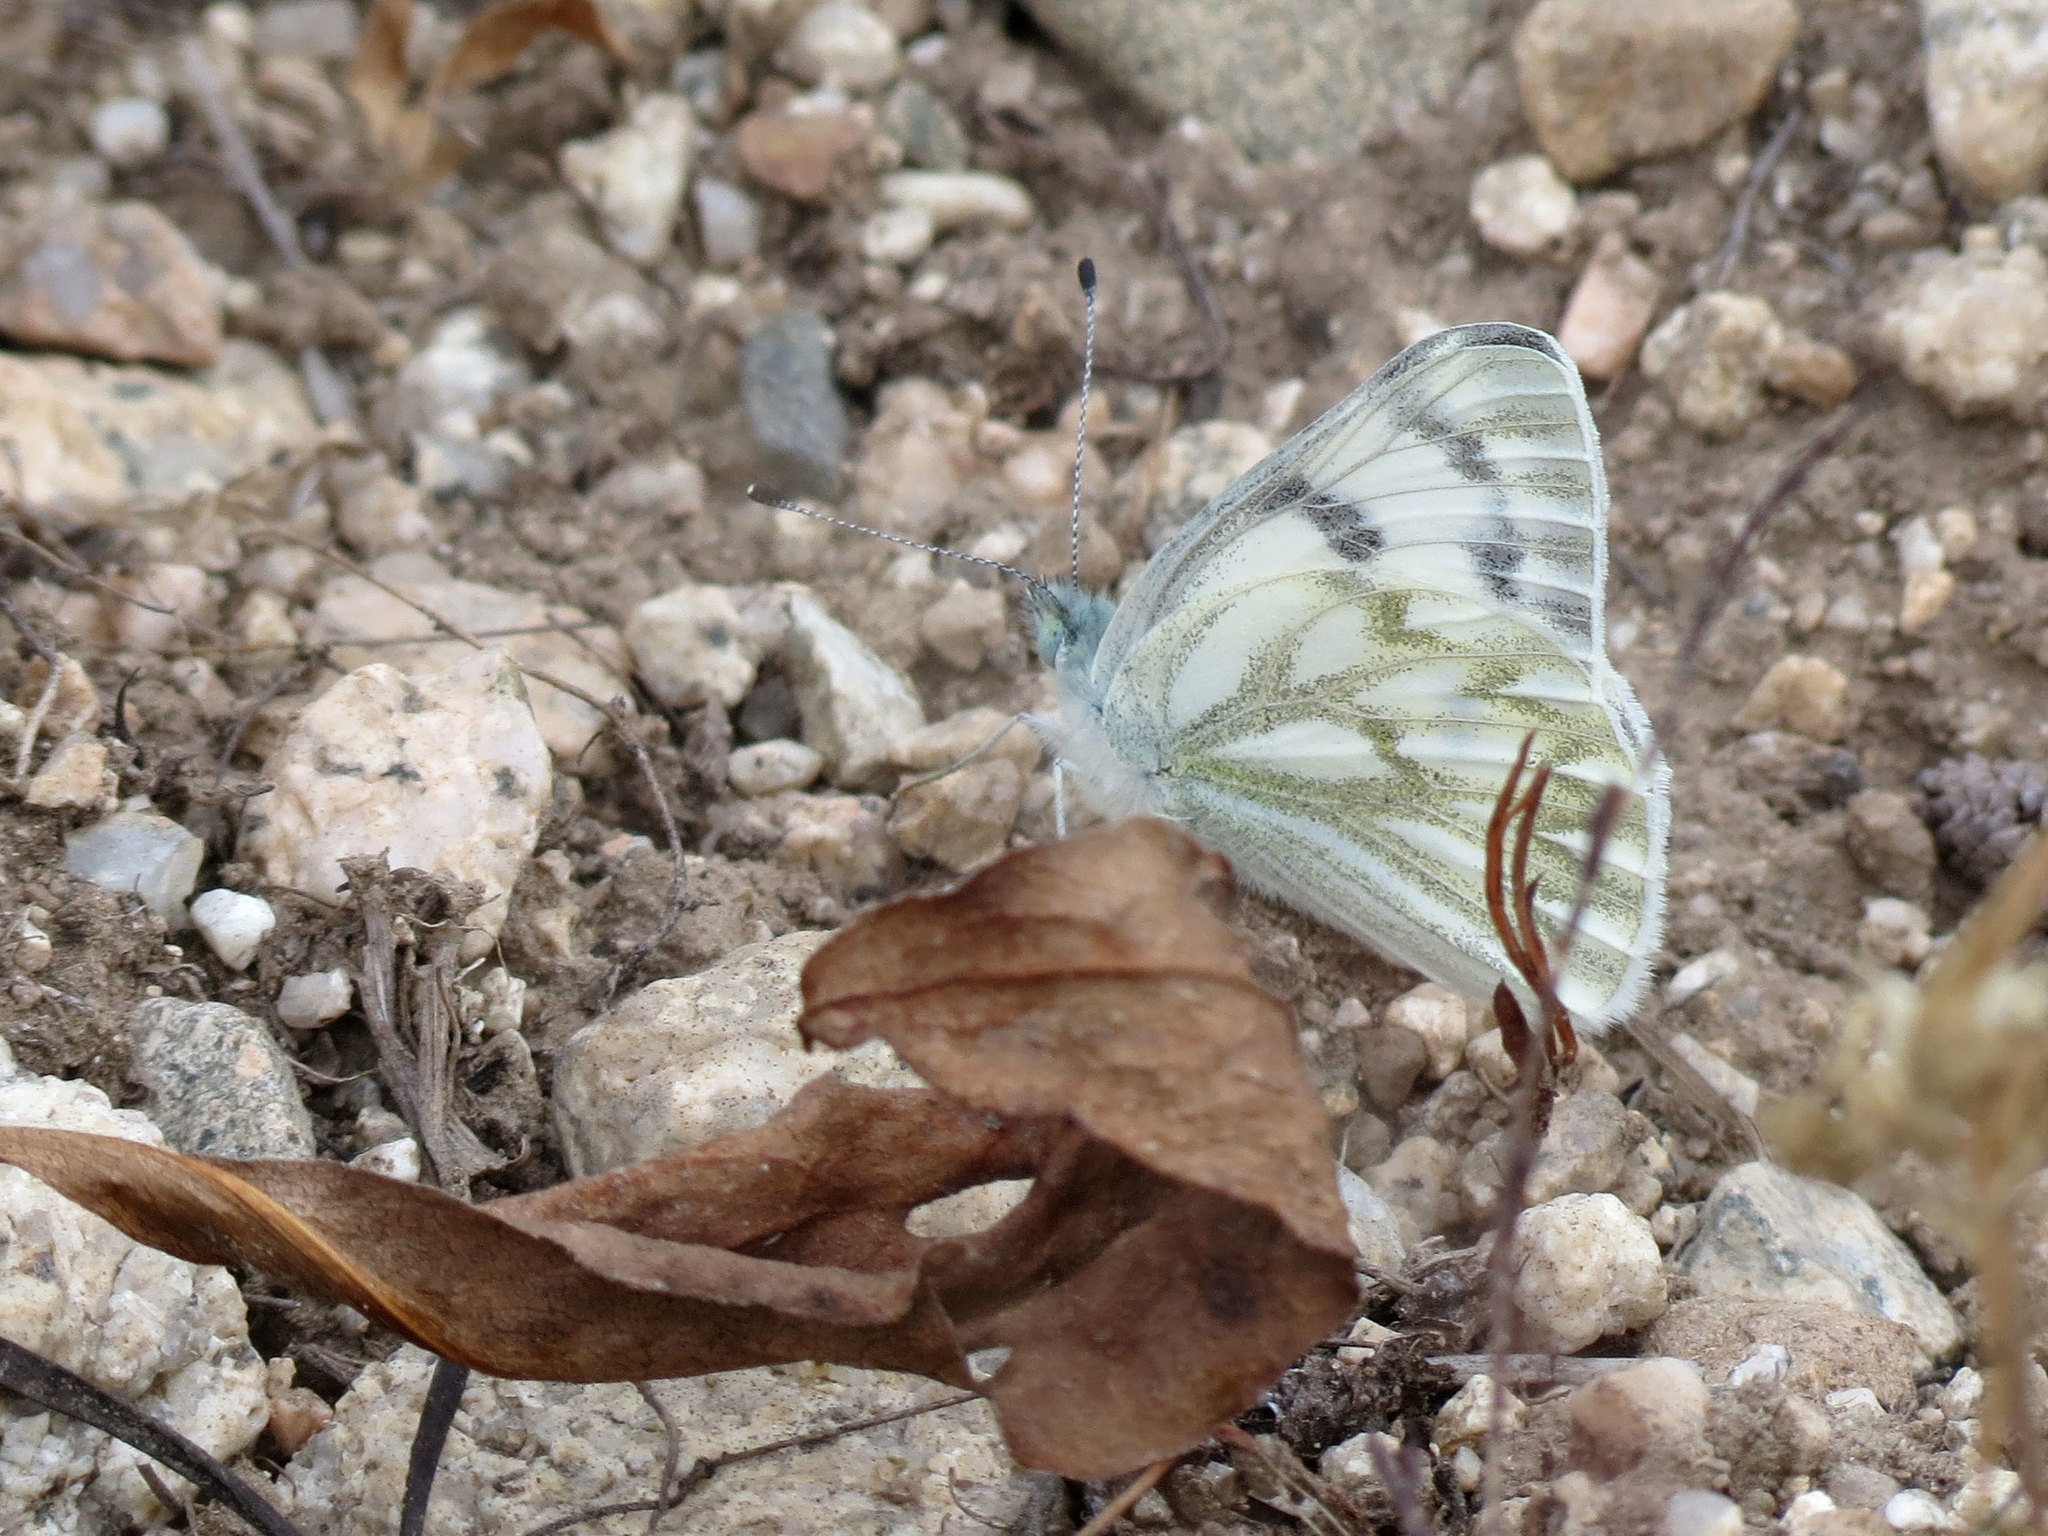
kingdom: Animalia
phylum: Arthropoda
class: Insecta
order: Lepidoptera
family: Pieridae
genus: Pontia
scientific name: Pontia occidentalis
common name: Western white
